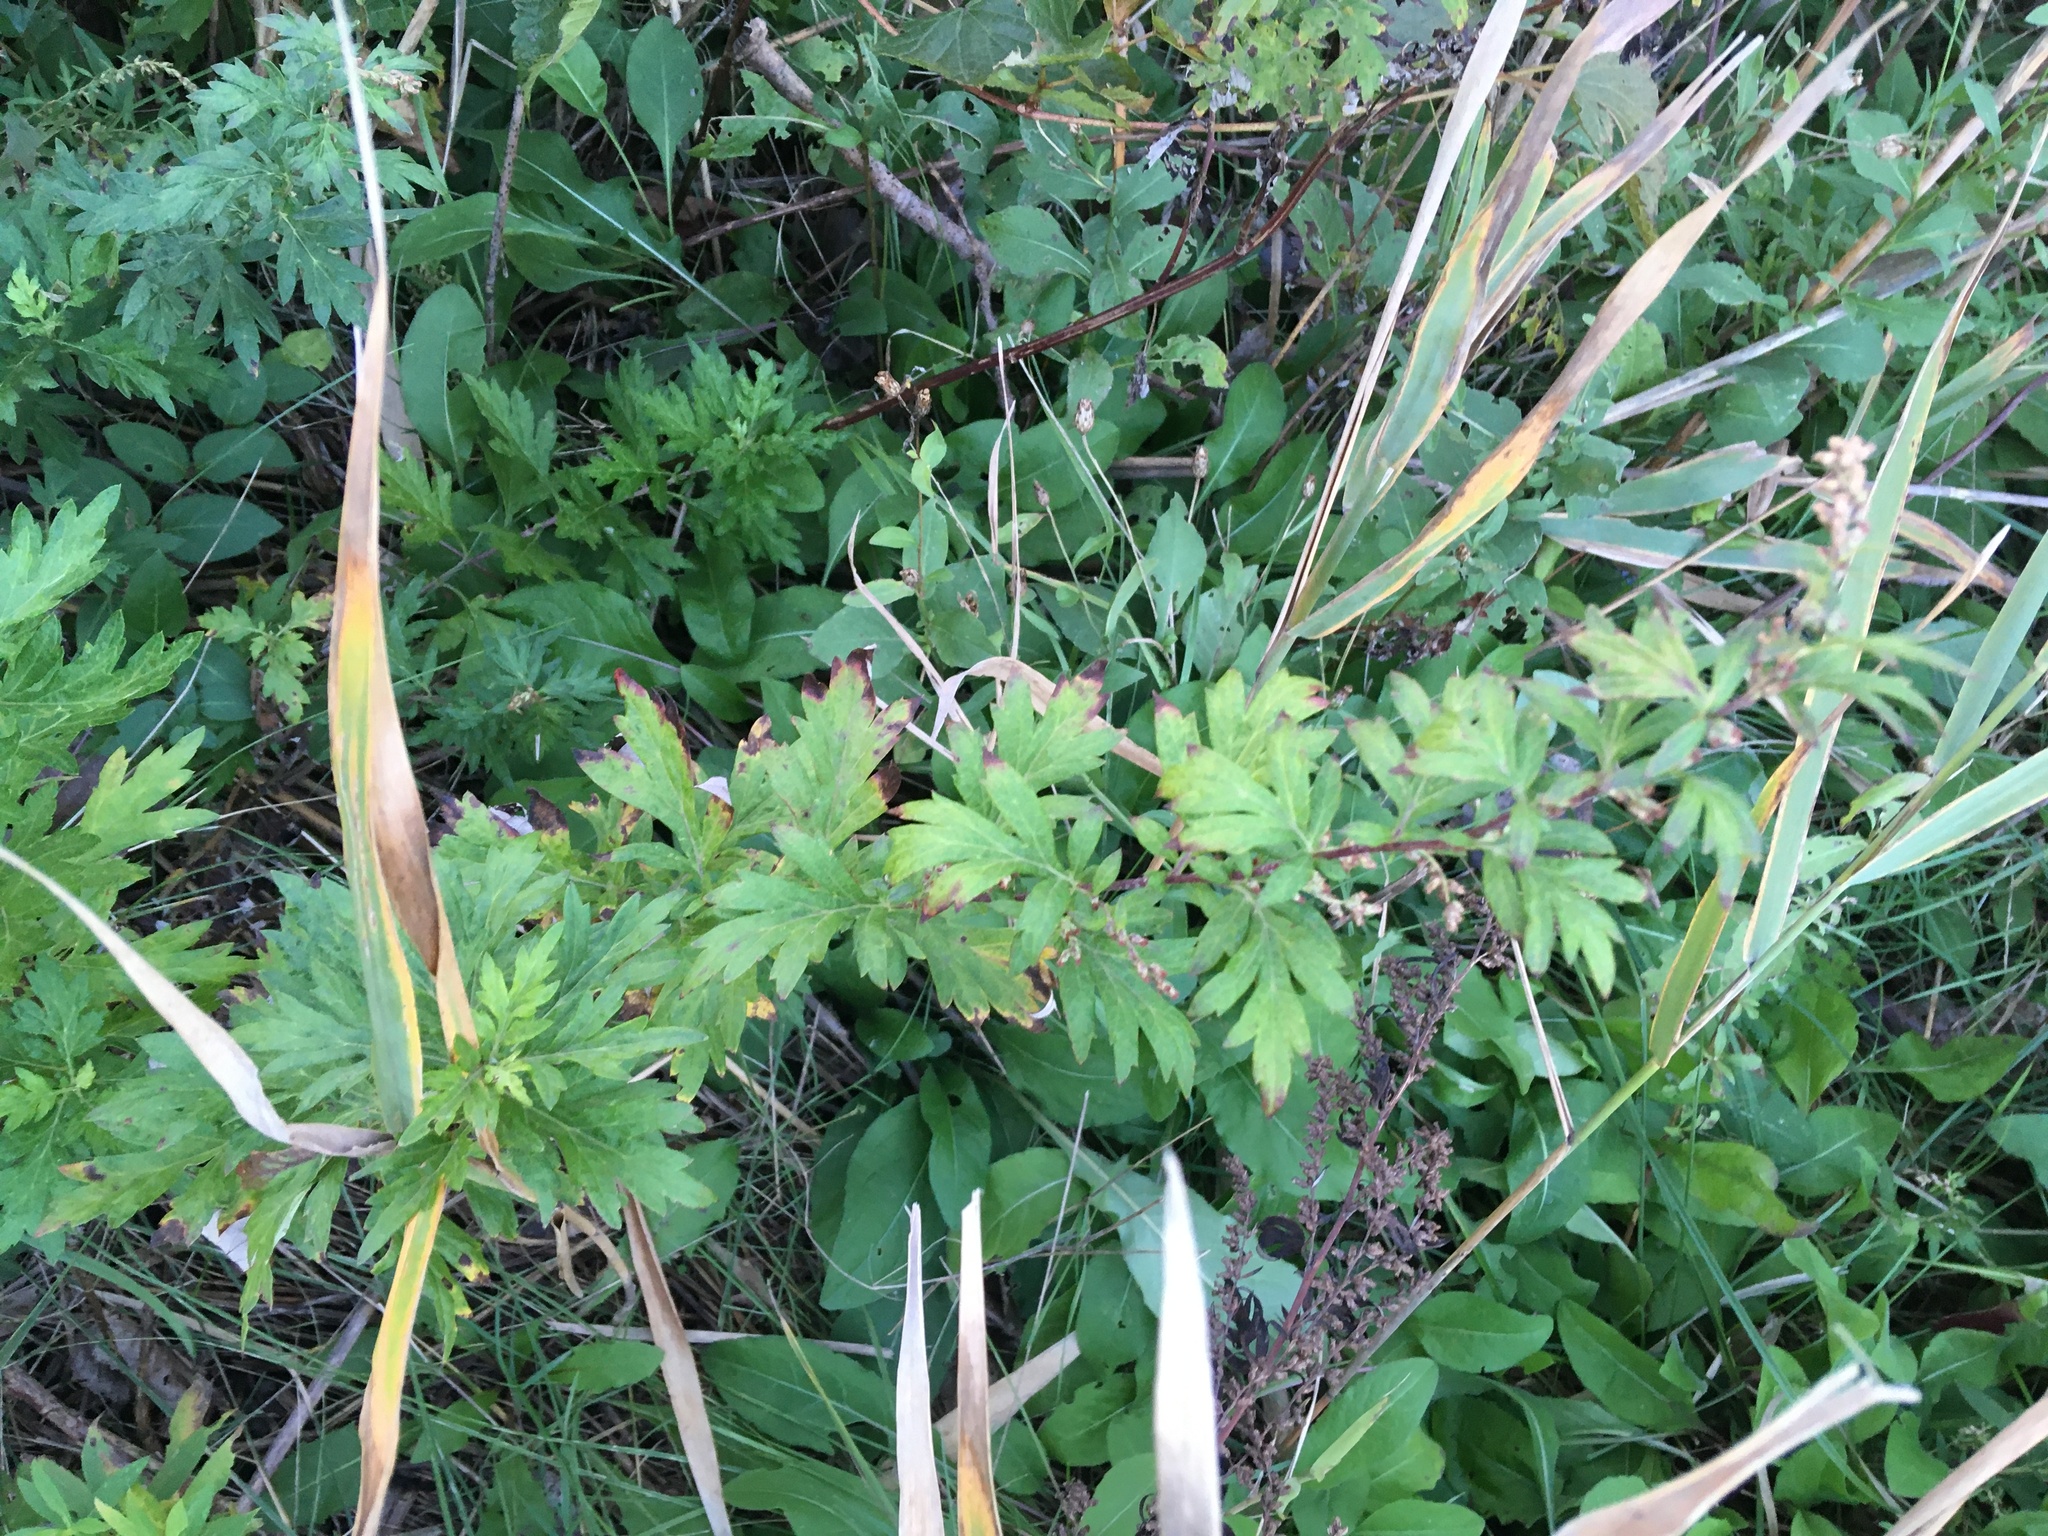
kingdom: Plantae
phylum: Tracheophyta
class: Magnoliopsida
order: Asterales
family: Asteraceae
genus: Artemisia
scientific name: Artemisia vulgaris
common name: Mugwort
